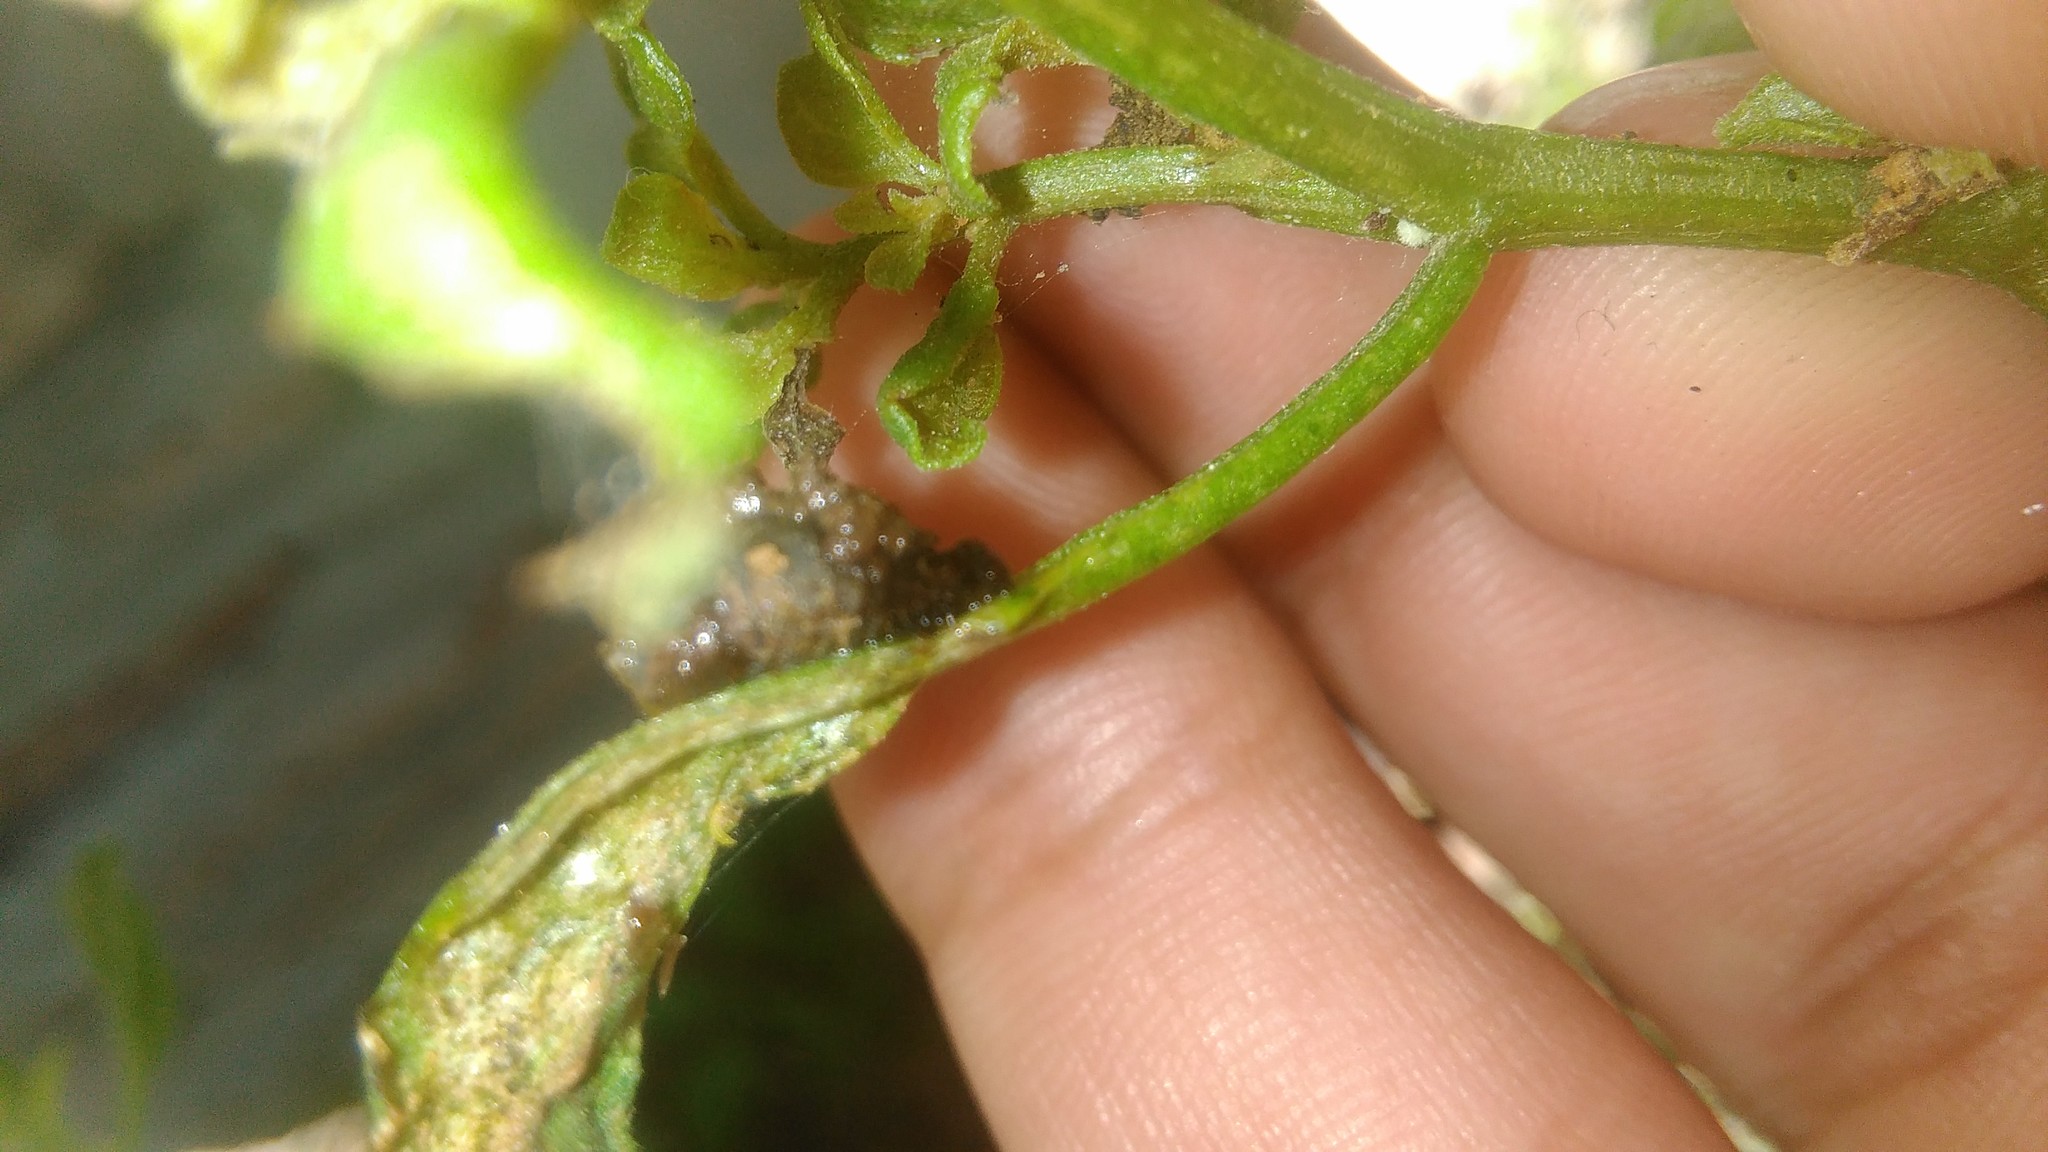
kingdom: Animalia
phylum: Arthropoda
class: Insecta
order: Coleoptera
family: Chrysomelidae
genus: Lema
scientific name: Lema bilineata
